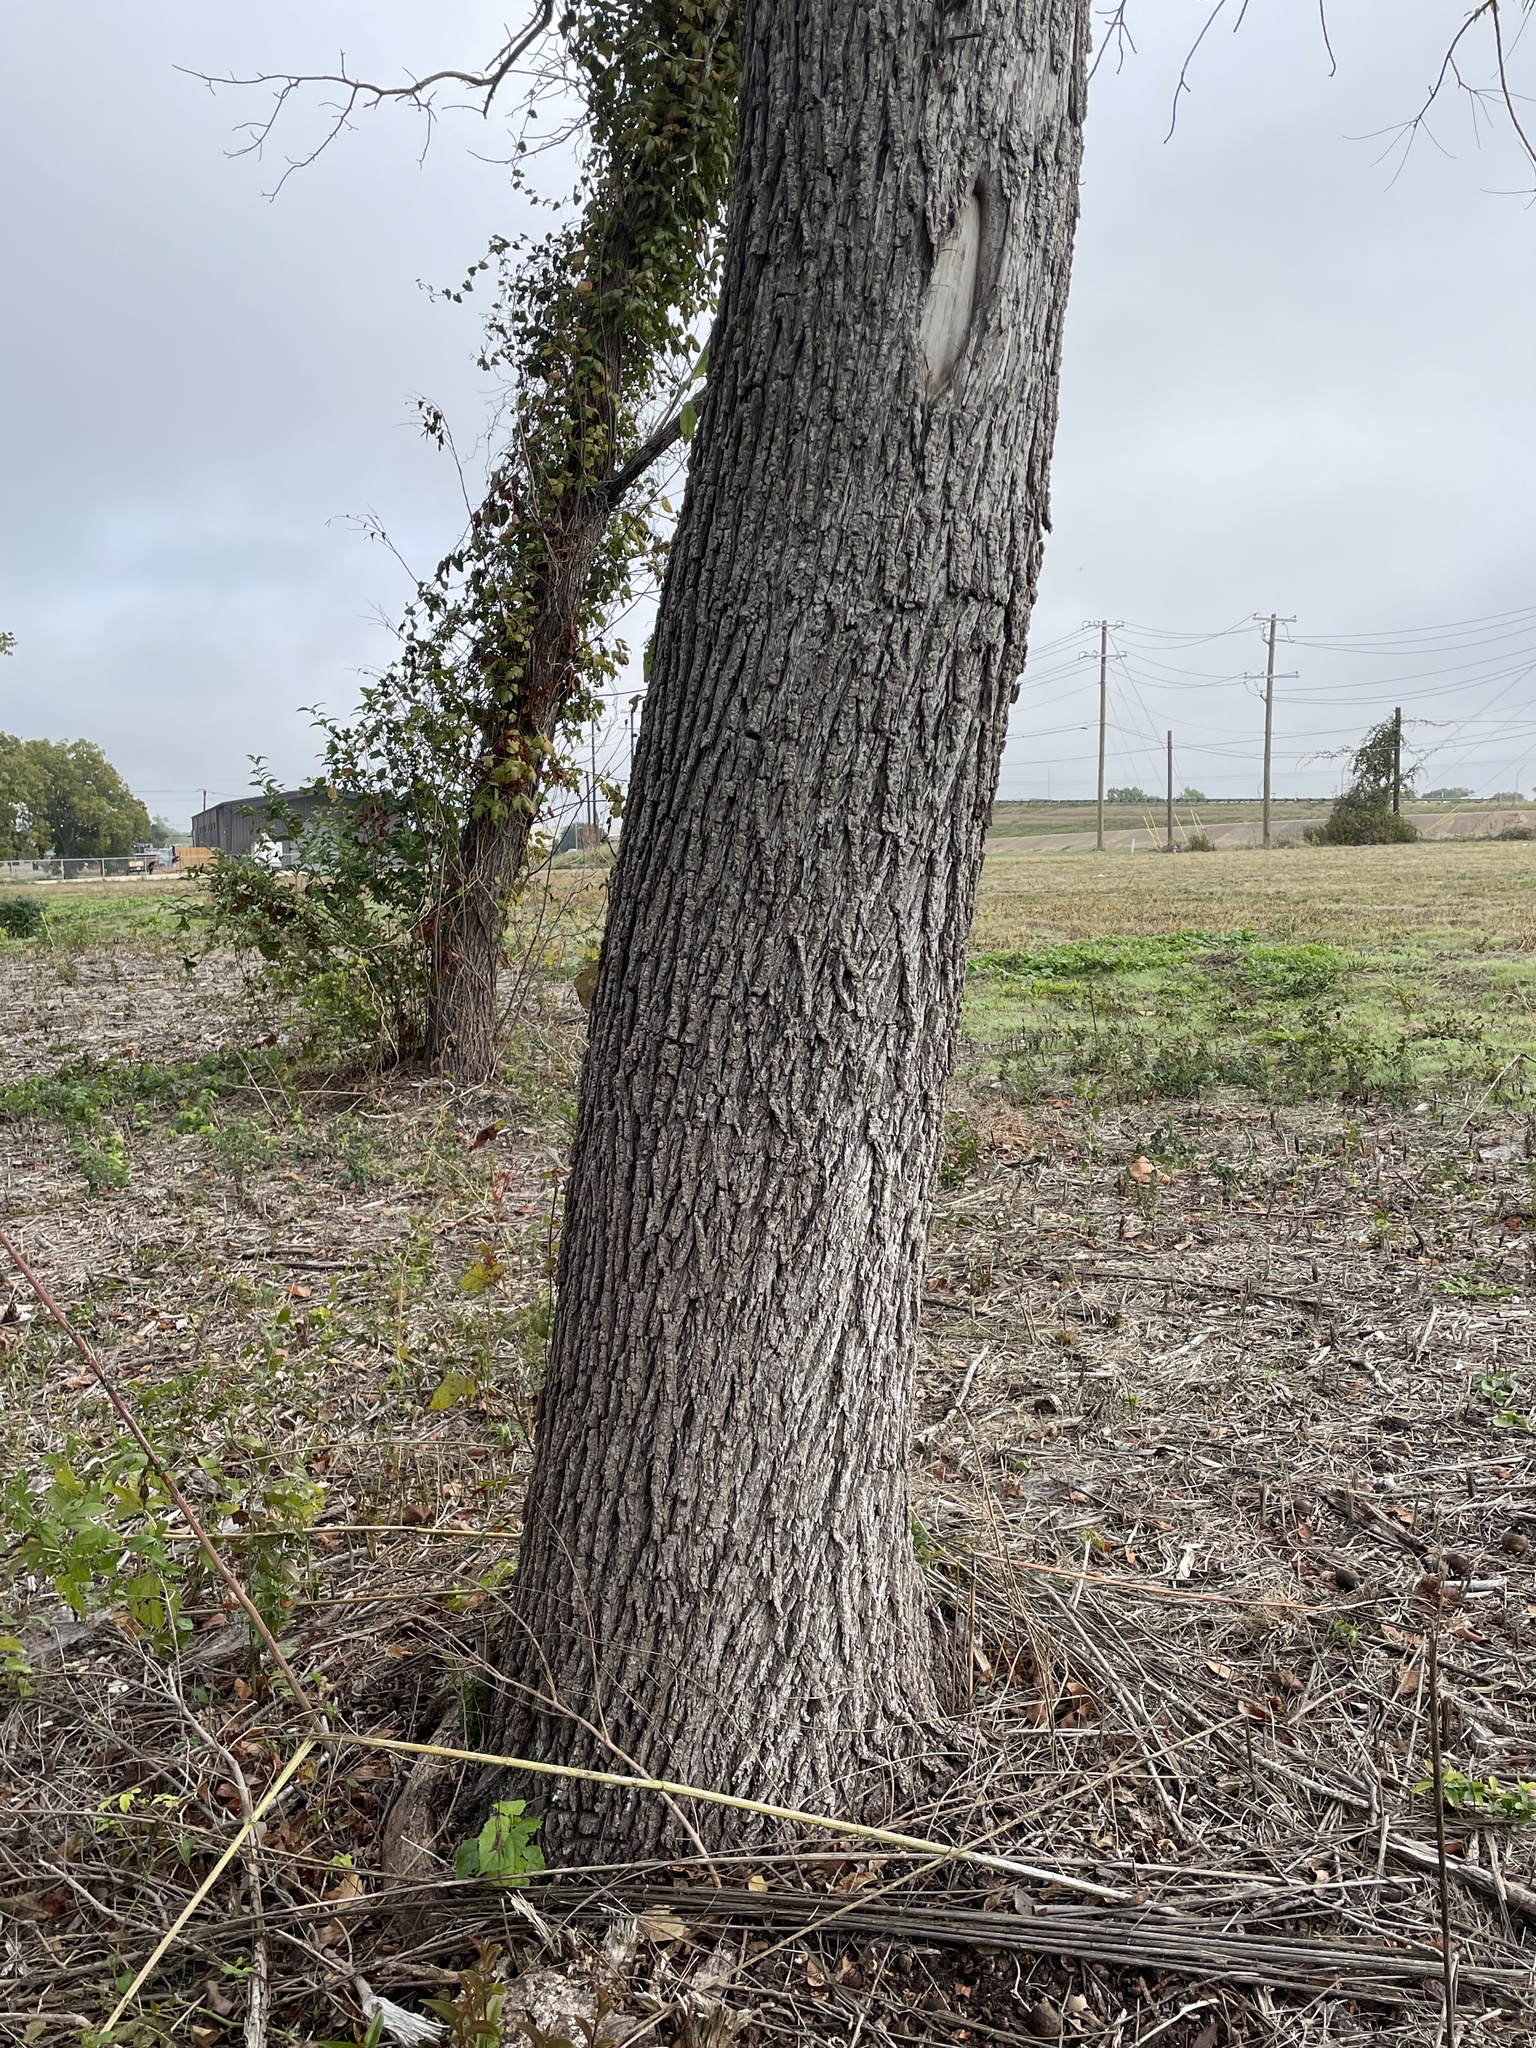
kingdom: Plantae
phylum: Tracheophyta
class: Magnoliopsida
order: Fagales
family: Juglandaceae
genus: Juglans
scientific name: Juglans nigra
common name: Black walnut
